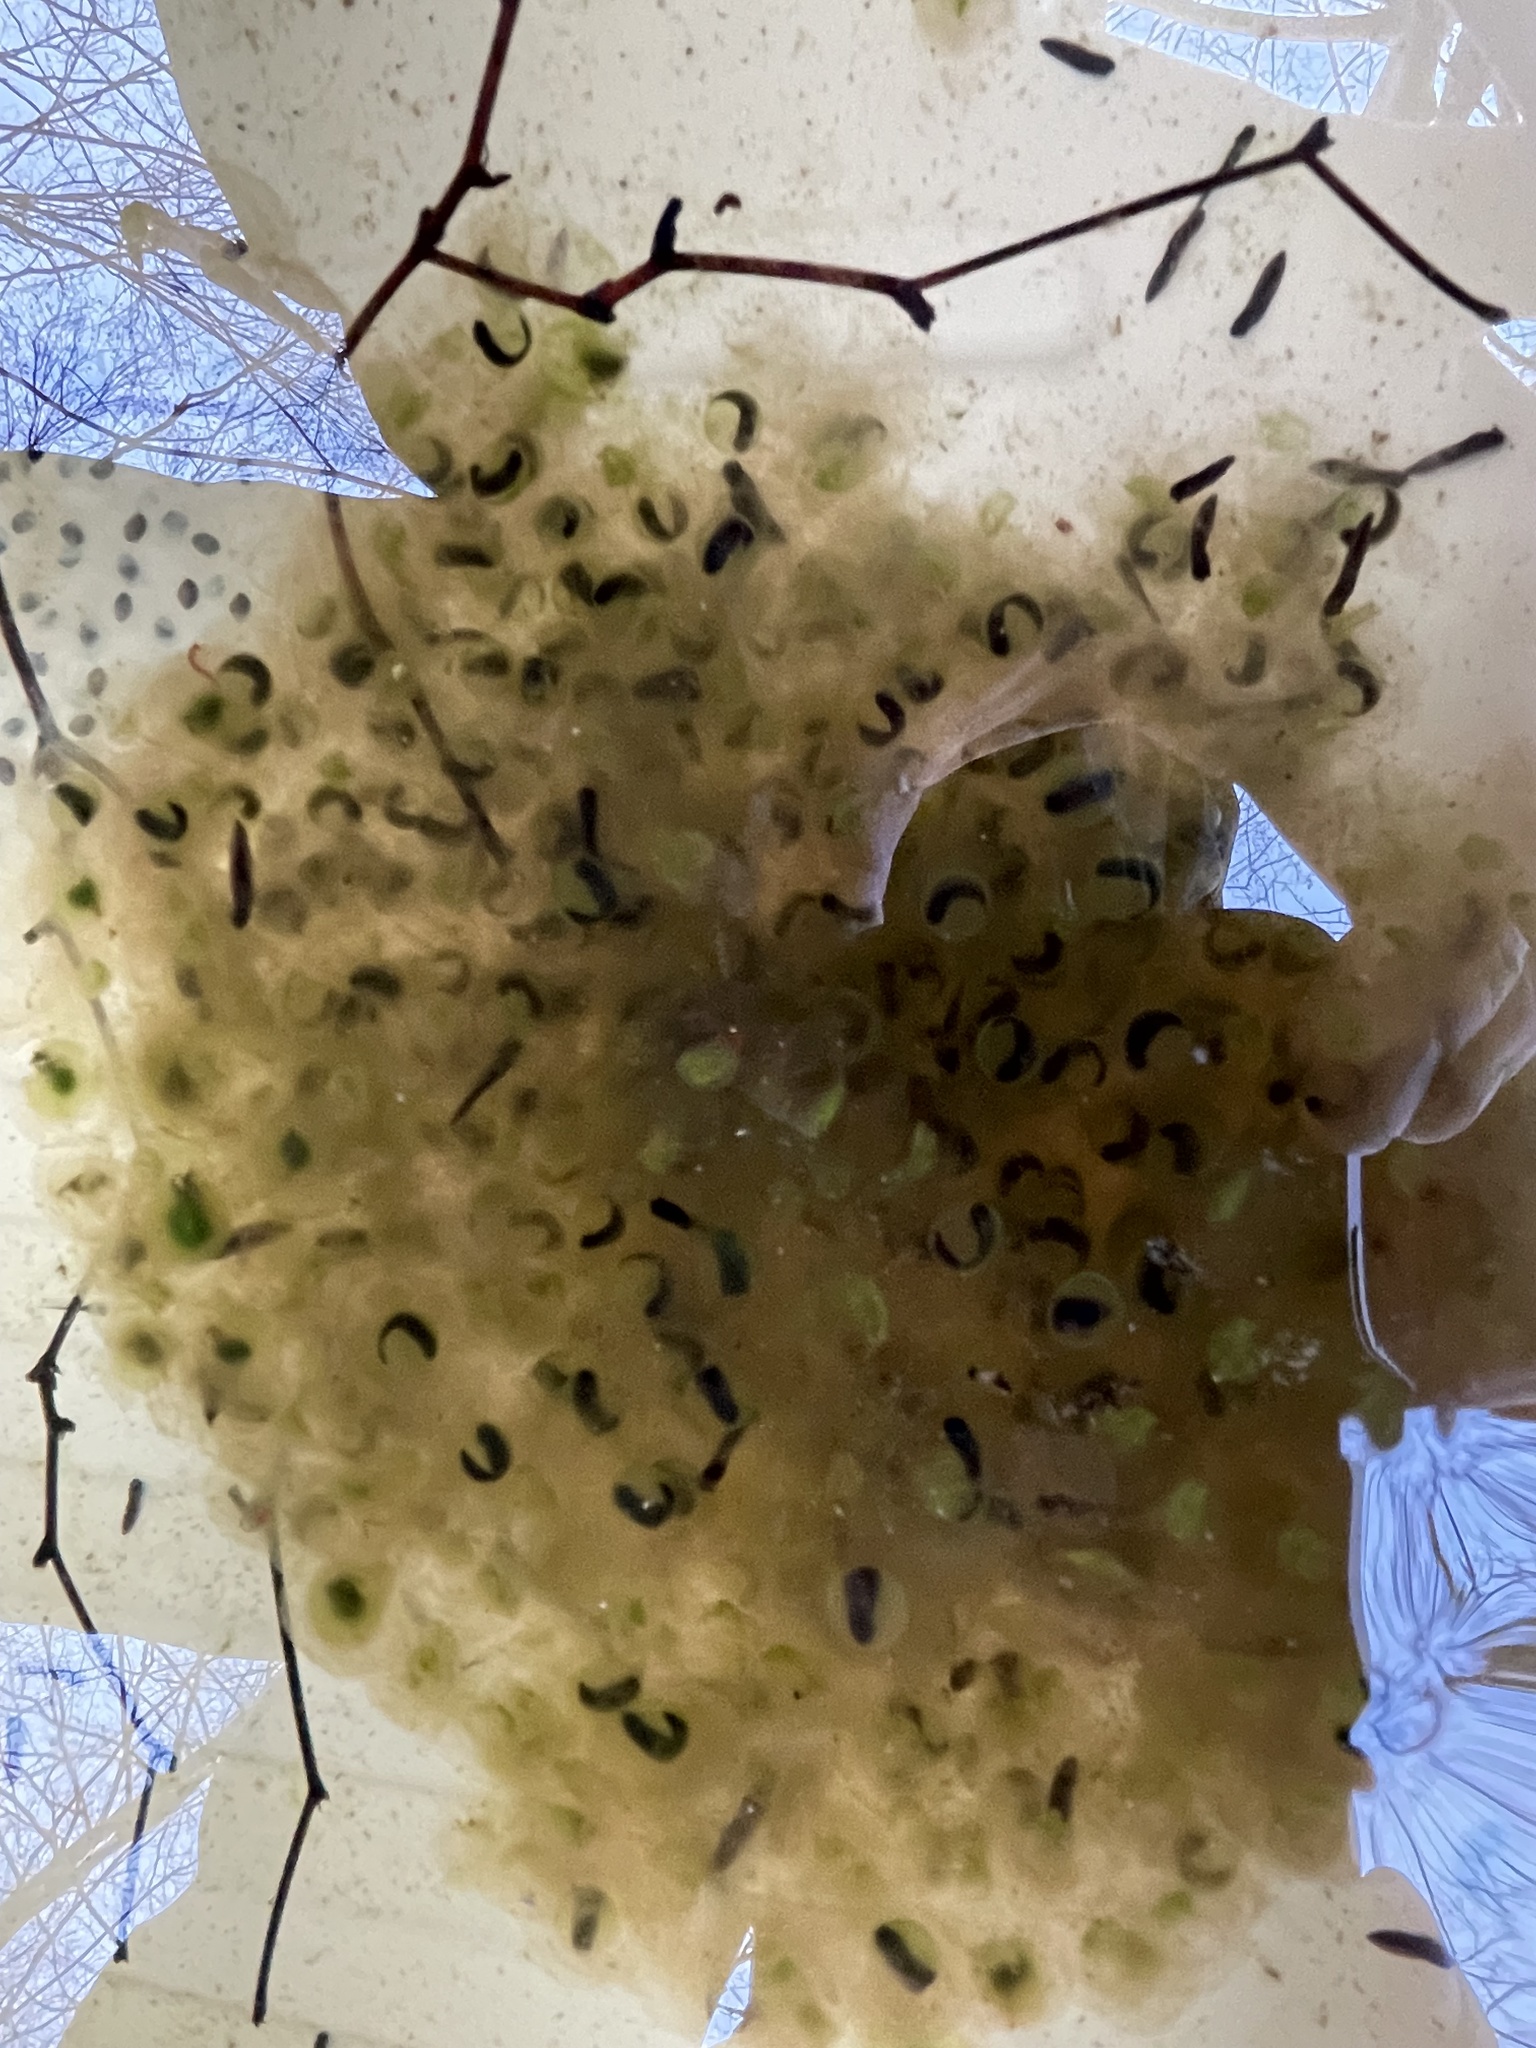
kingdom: Animalia
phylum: Chordata
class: Amphibia
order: Anura
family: Ranidae
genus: Lithobates
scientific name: Lithobates sylvaticus
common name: Wood frog
